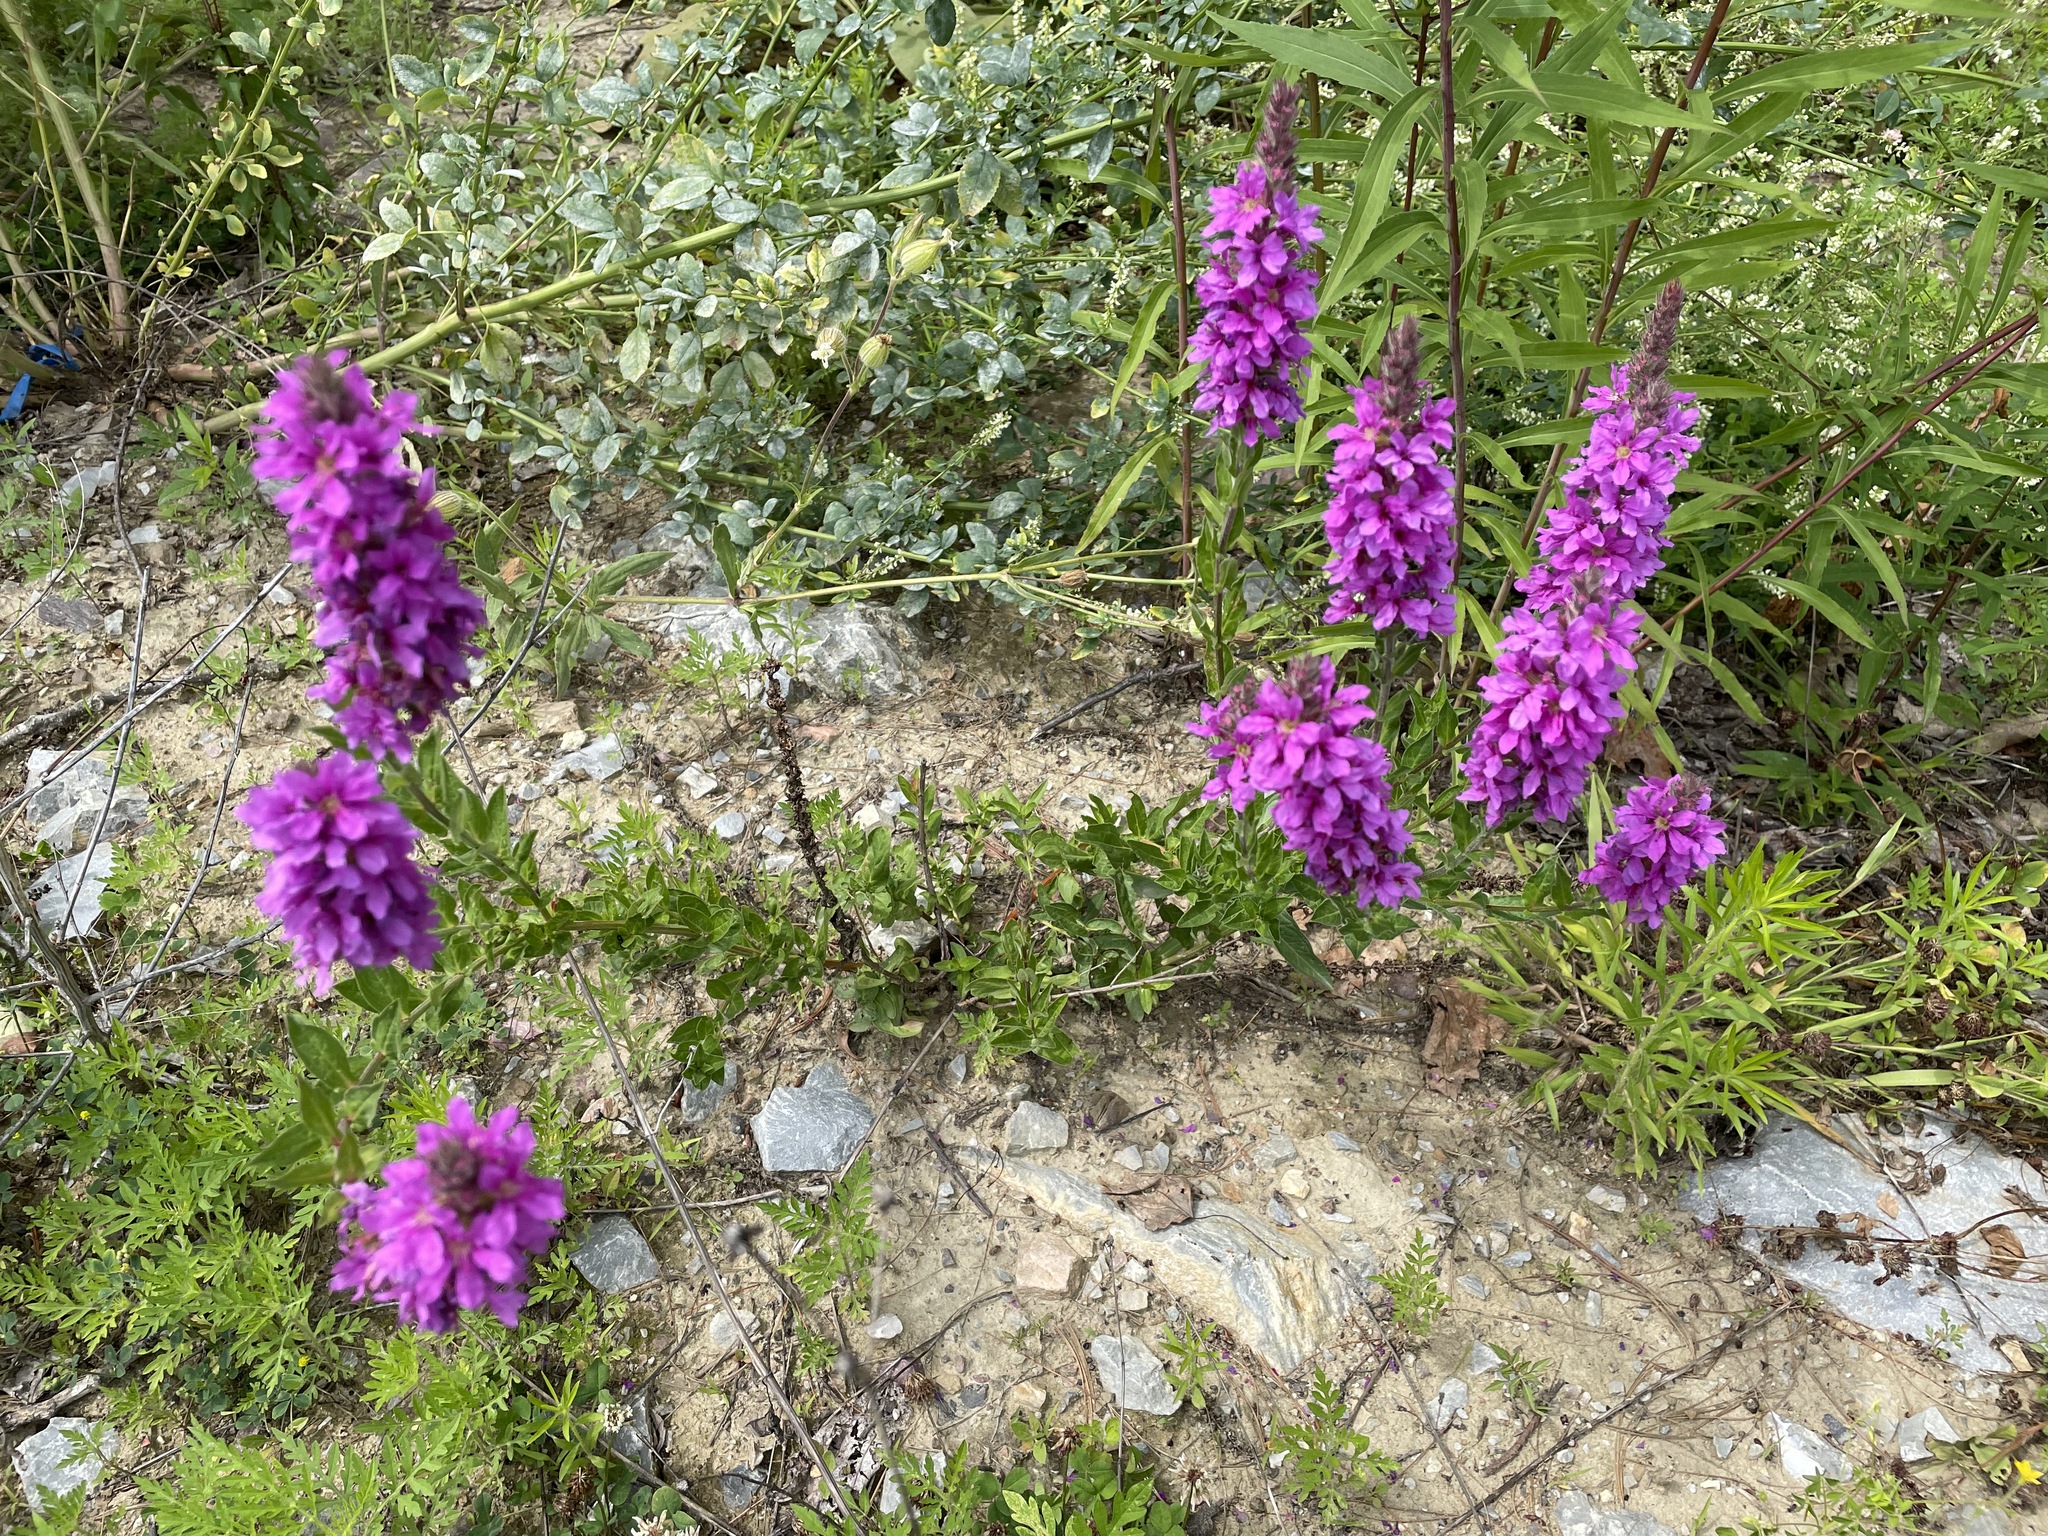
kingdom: Plantae
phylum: Tracheophyta
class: Magnoliopsida
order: Myrtales
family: Lythraceae
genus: Lythrum
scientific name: Lythrum salicaria
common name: Purple loosestrife
